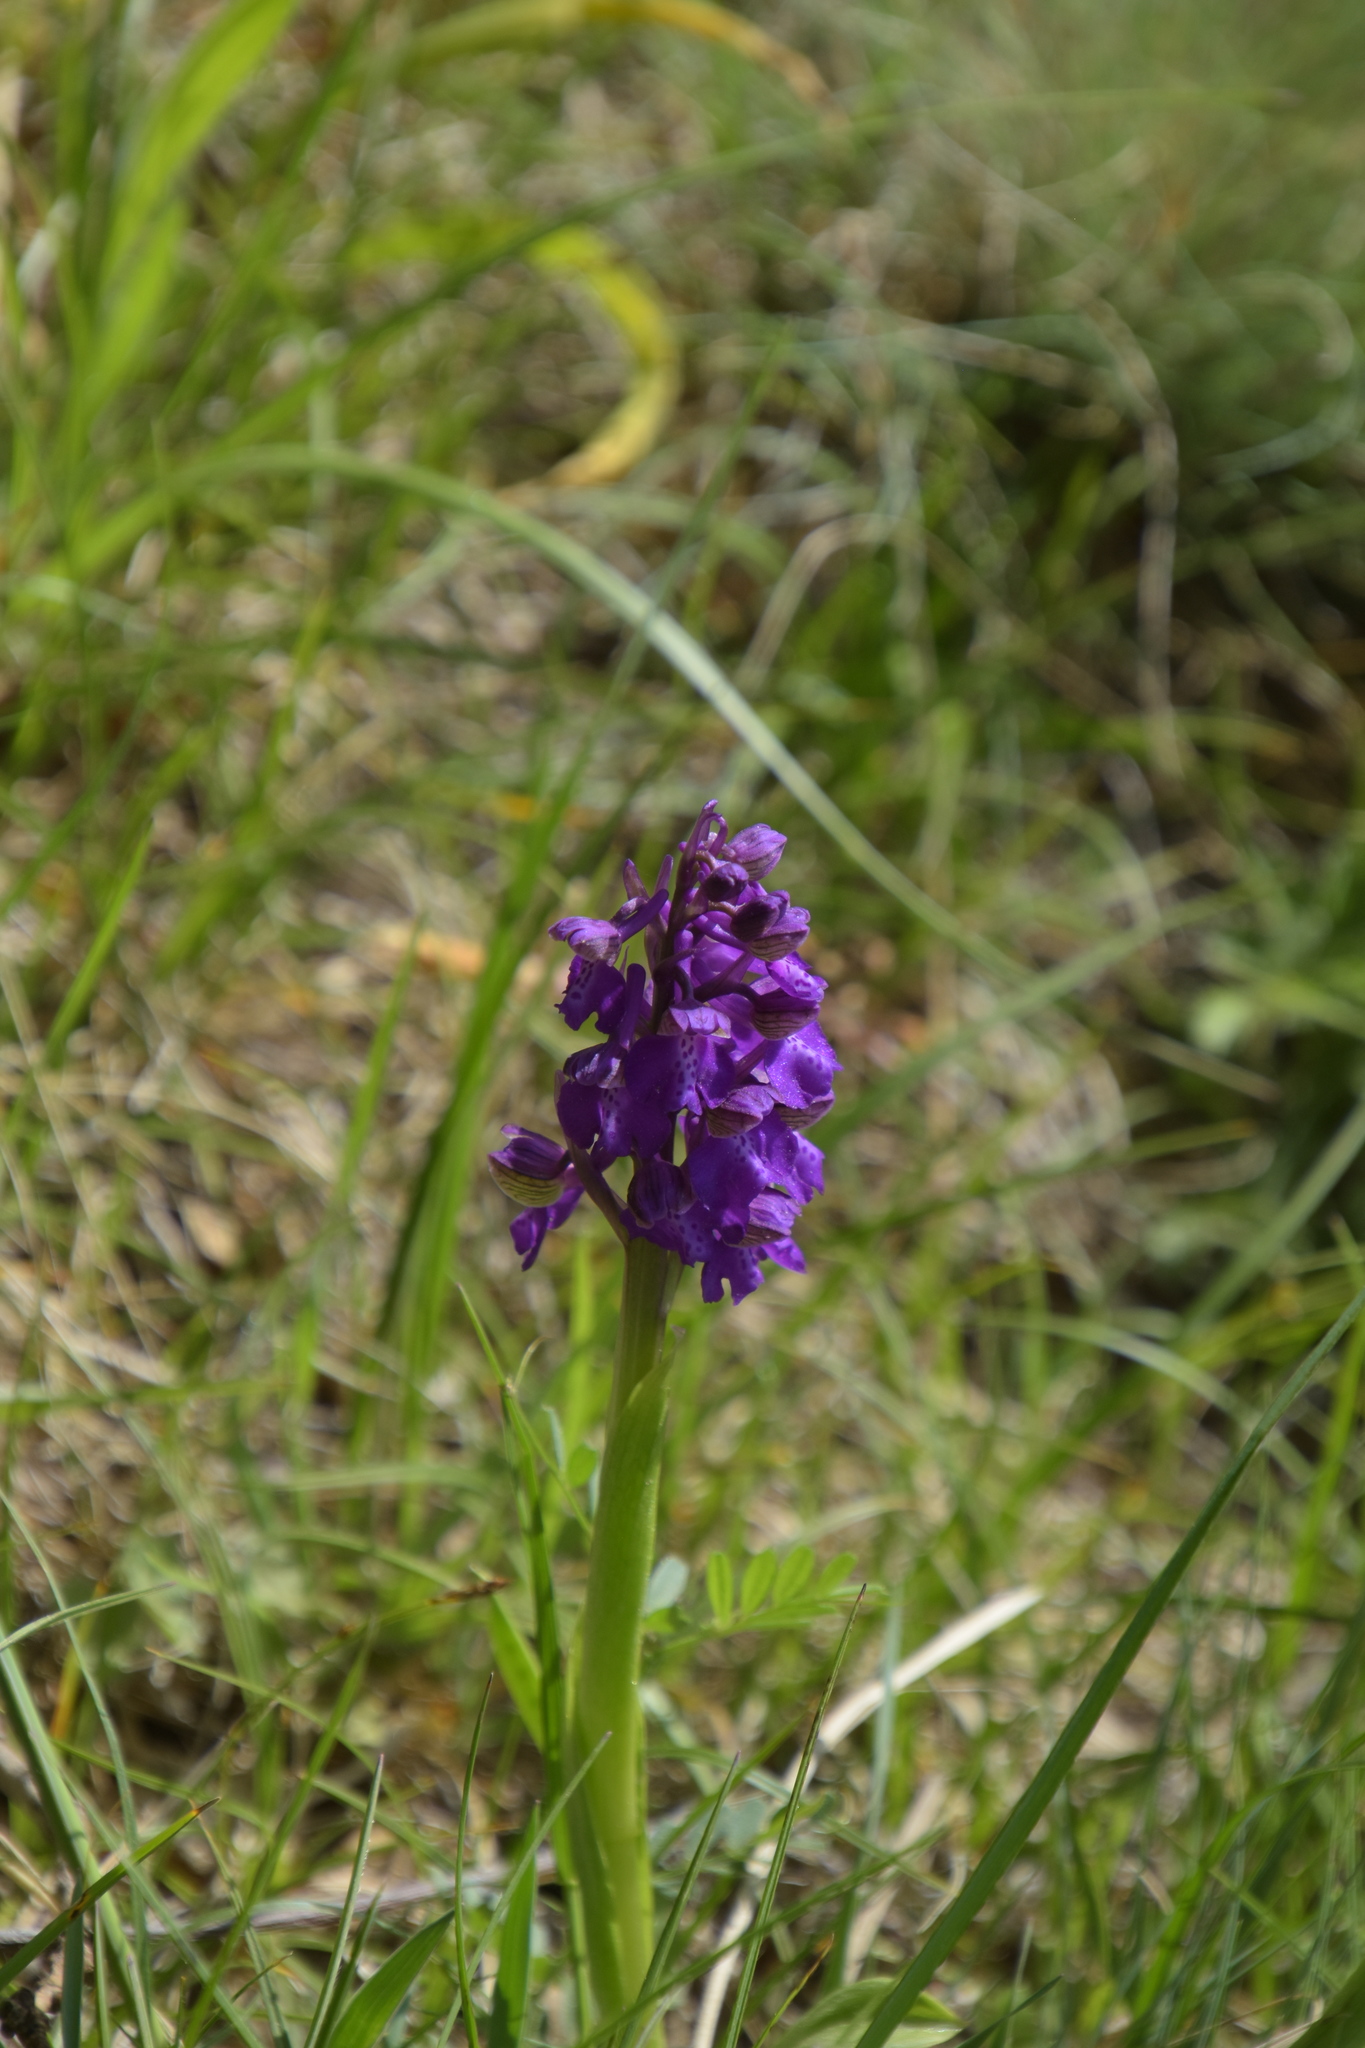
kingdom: Plantae
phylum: Tracheophyta
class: Liliopsida
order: Asparagales
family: Orchidaceae
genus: Anacamptis
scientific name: Anacamptis morio
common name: Green-winged orchid
